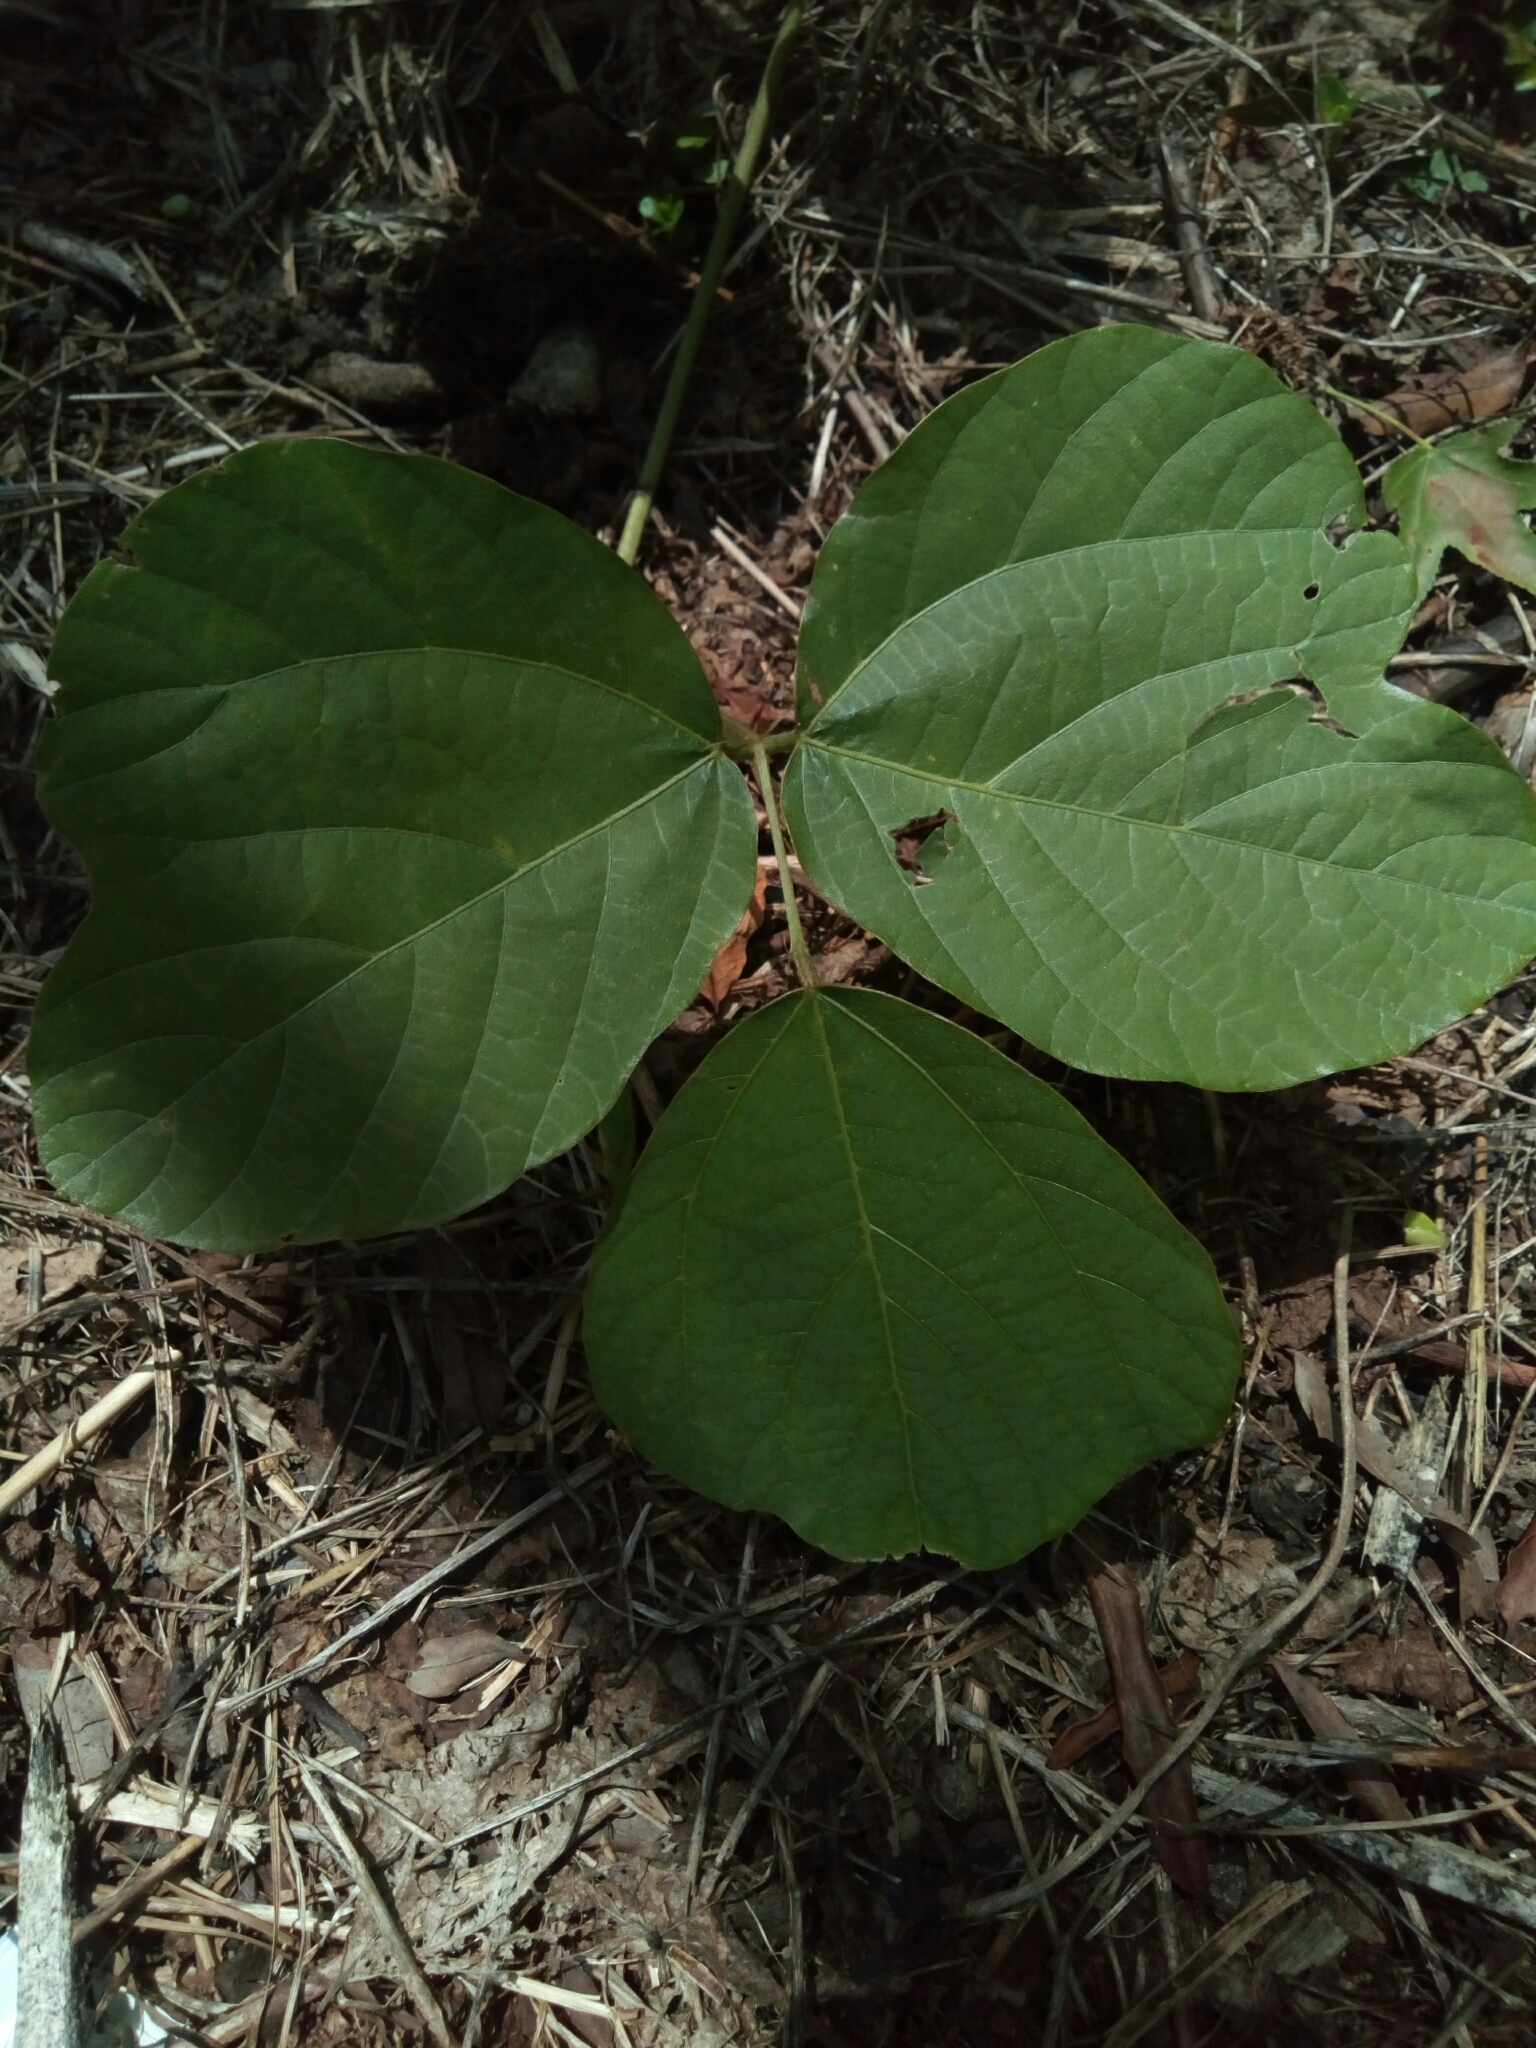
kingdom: Plantae
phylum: Tracheophyta
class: Magnoliopsida
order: Fabales
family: Fabaceae
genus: Pueraria
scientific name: Pueraria montana
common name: Kudzu
